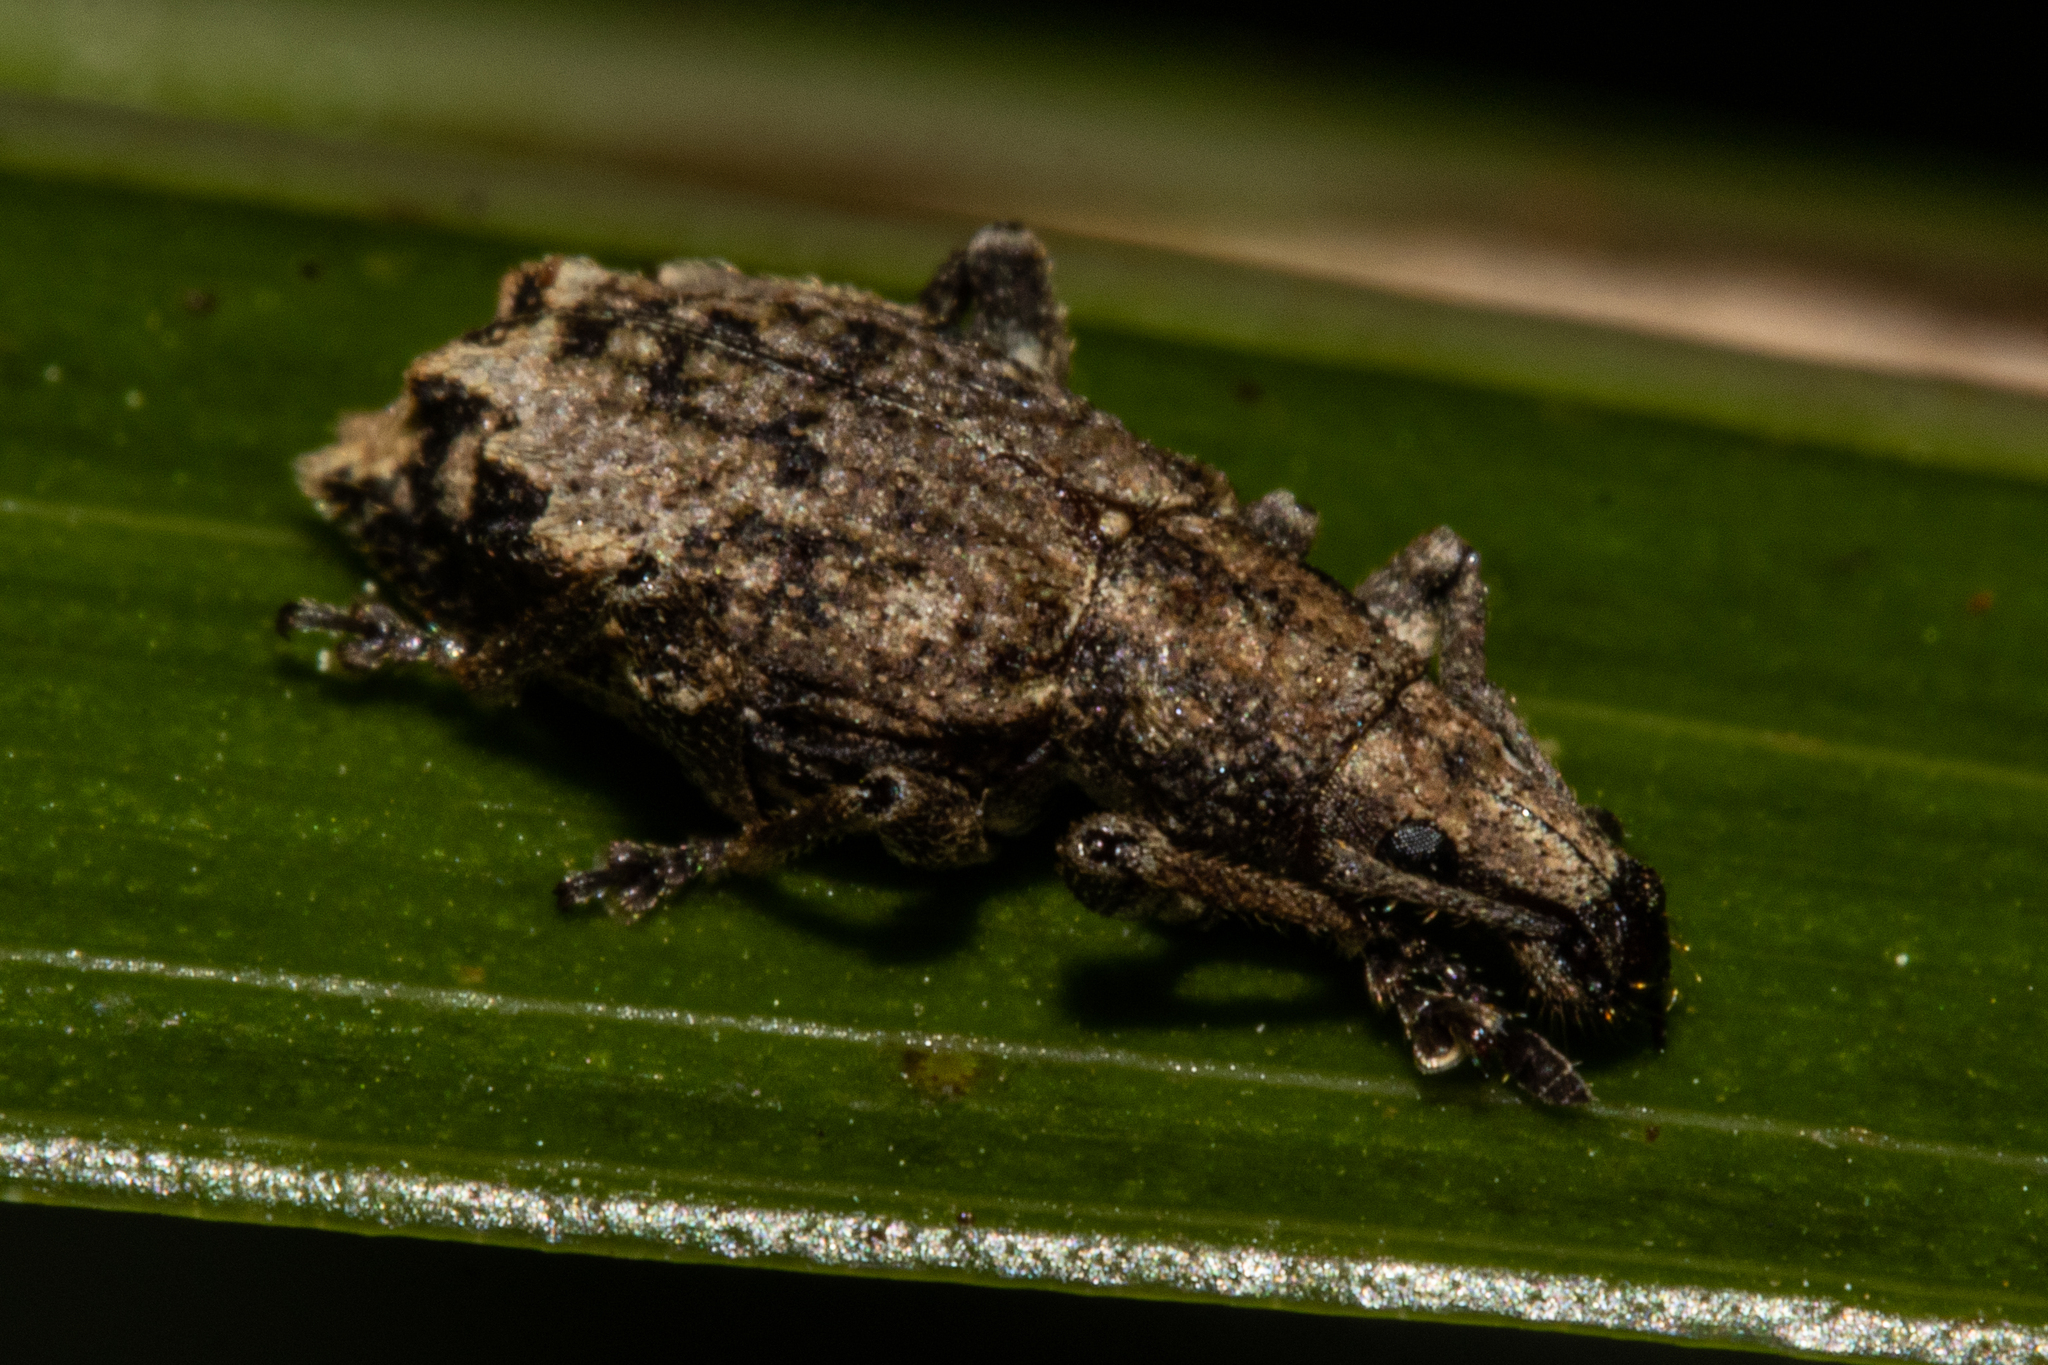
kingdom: Animalia
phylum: Arthropoda
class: Insecta
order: Coleoptera
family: Curculionidae
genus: Catoptes
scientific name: Catoptes robustus
